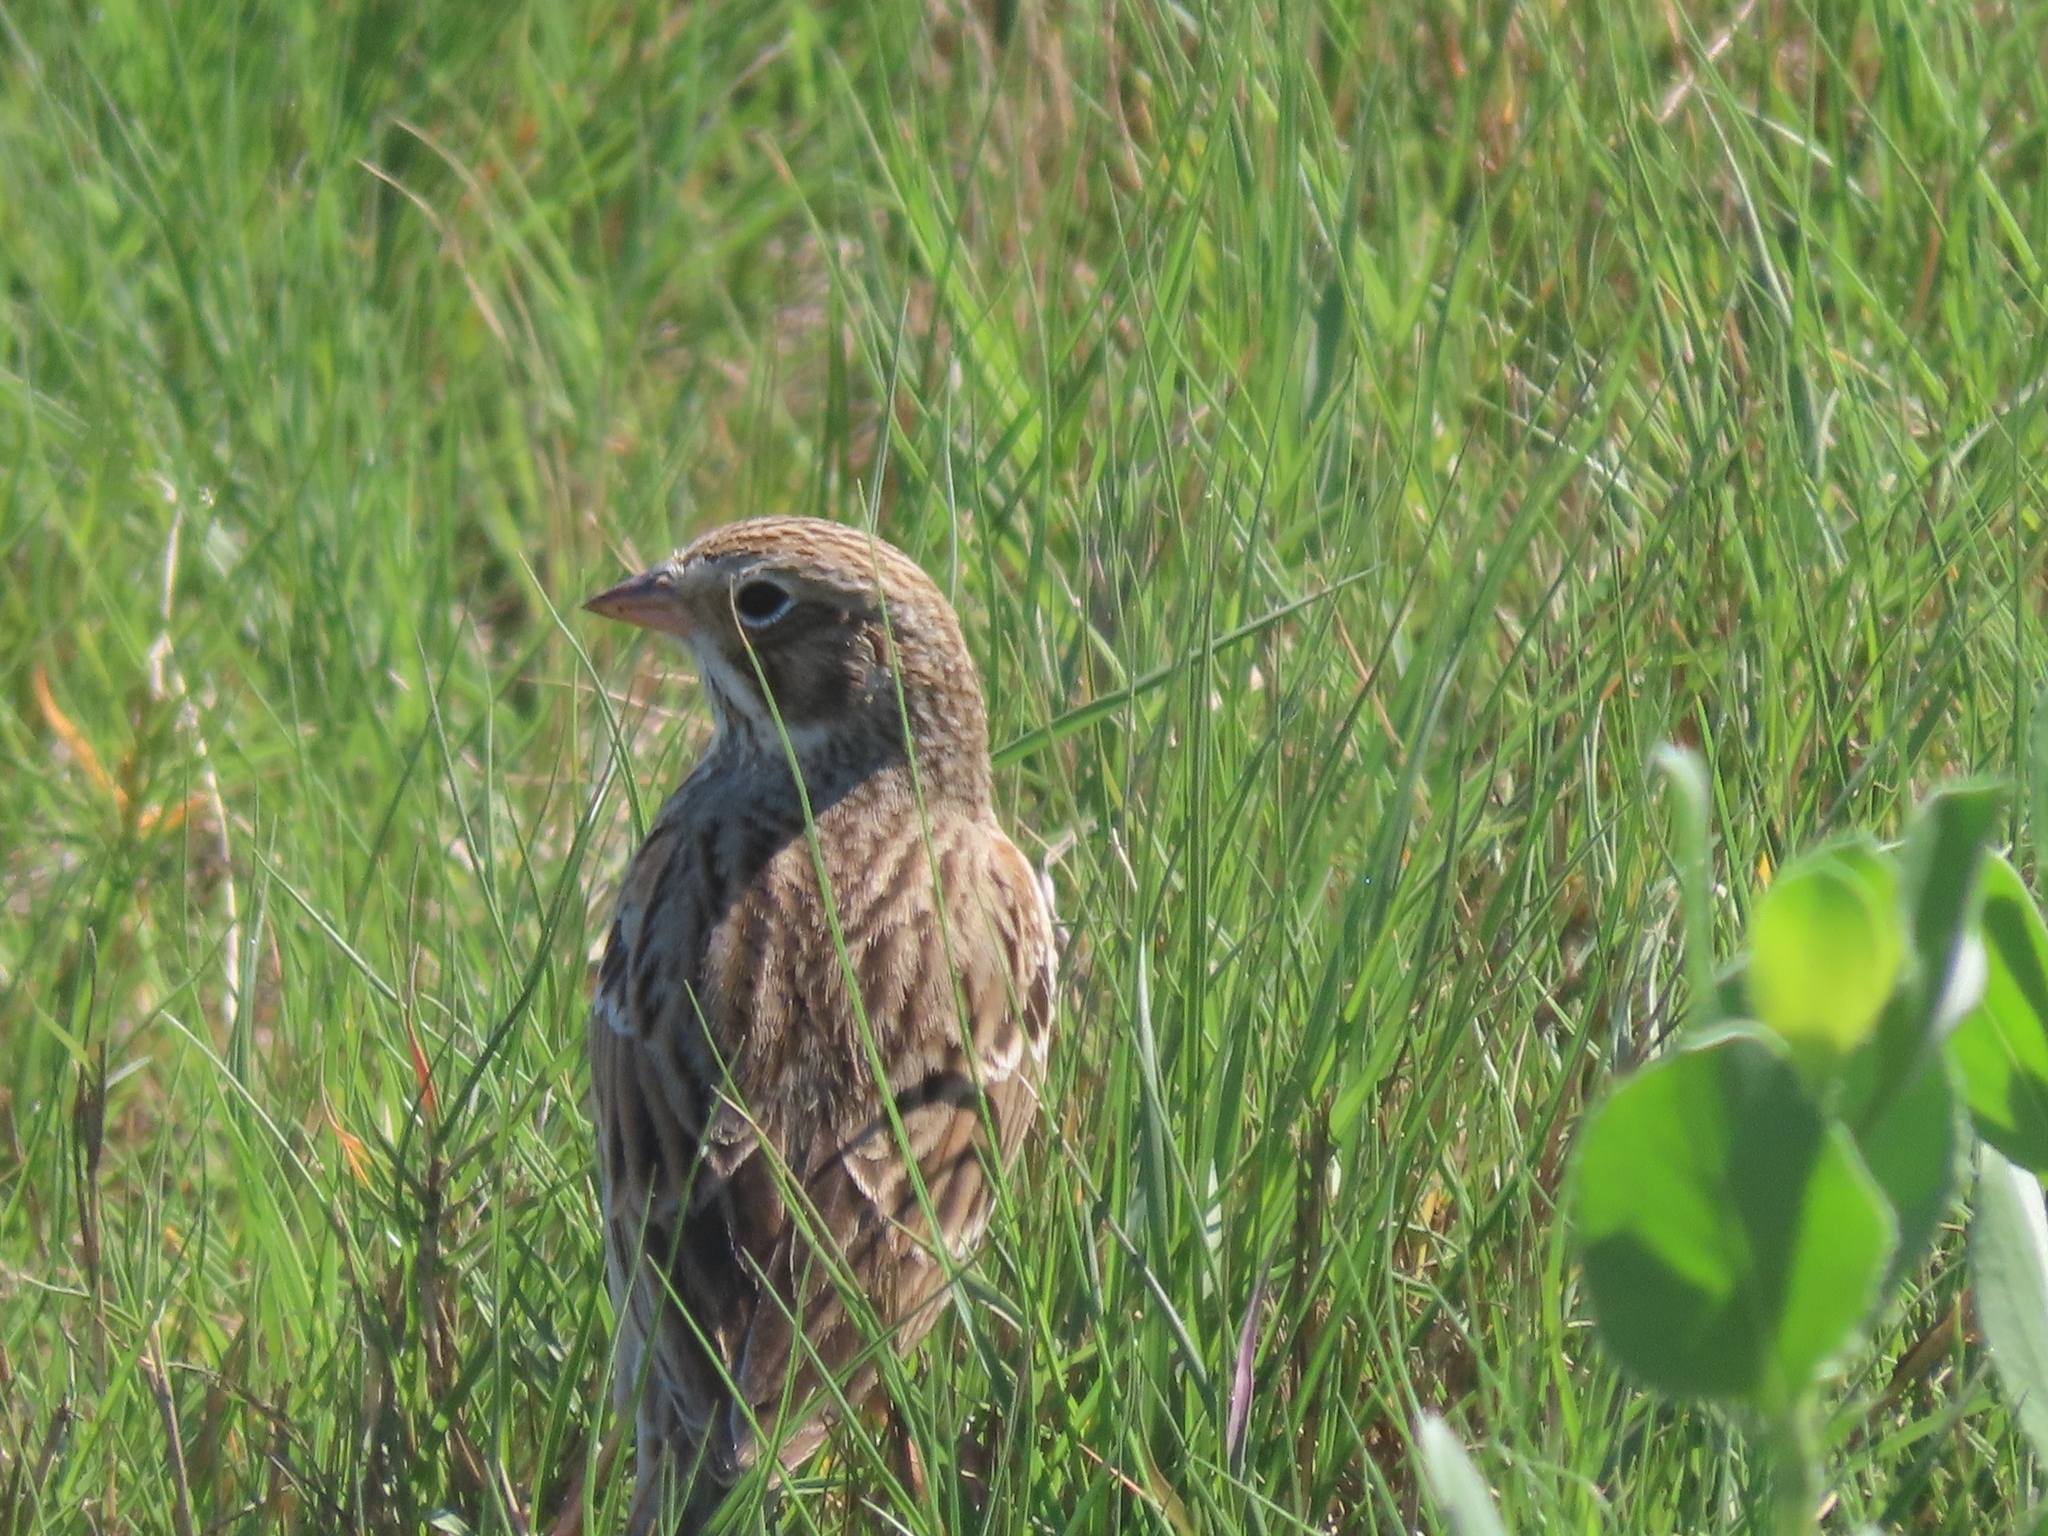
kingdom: Animalia
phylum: Chordata
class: Aves
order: Passeriformes
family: Passerellidae
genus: Pooecetes
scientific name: Pooecetes gramineus
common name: Vesper sparrow
